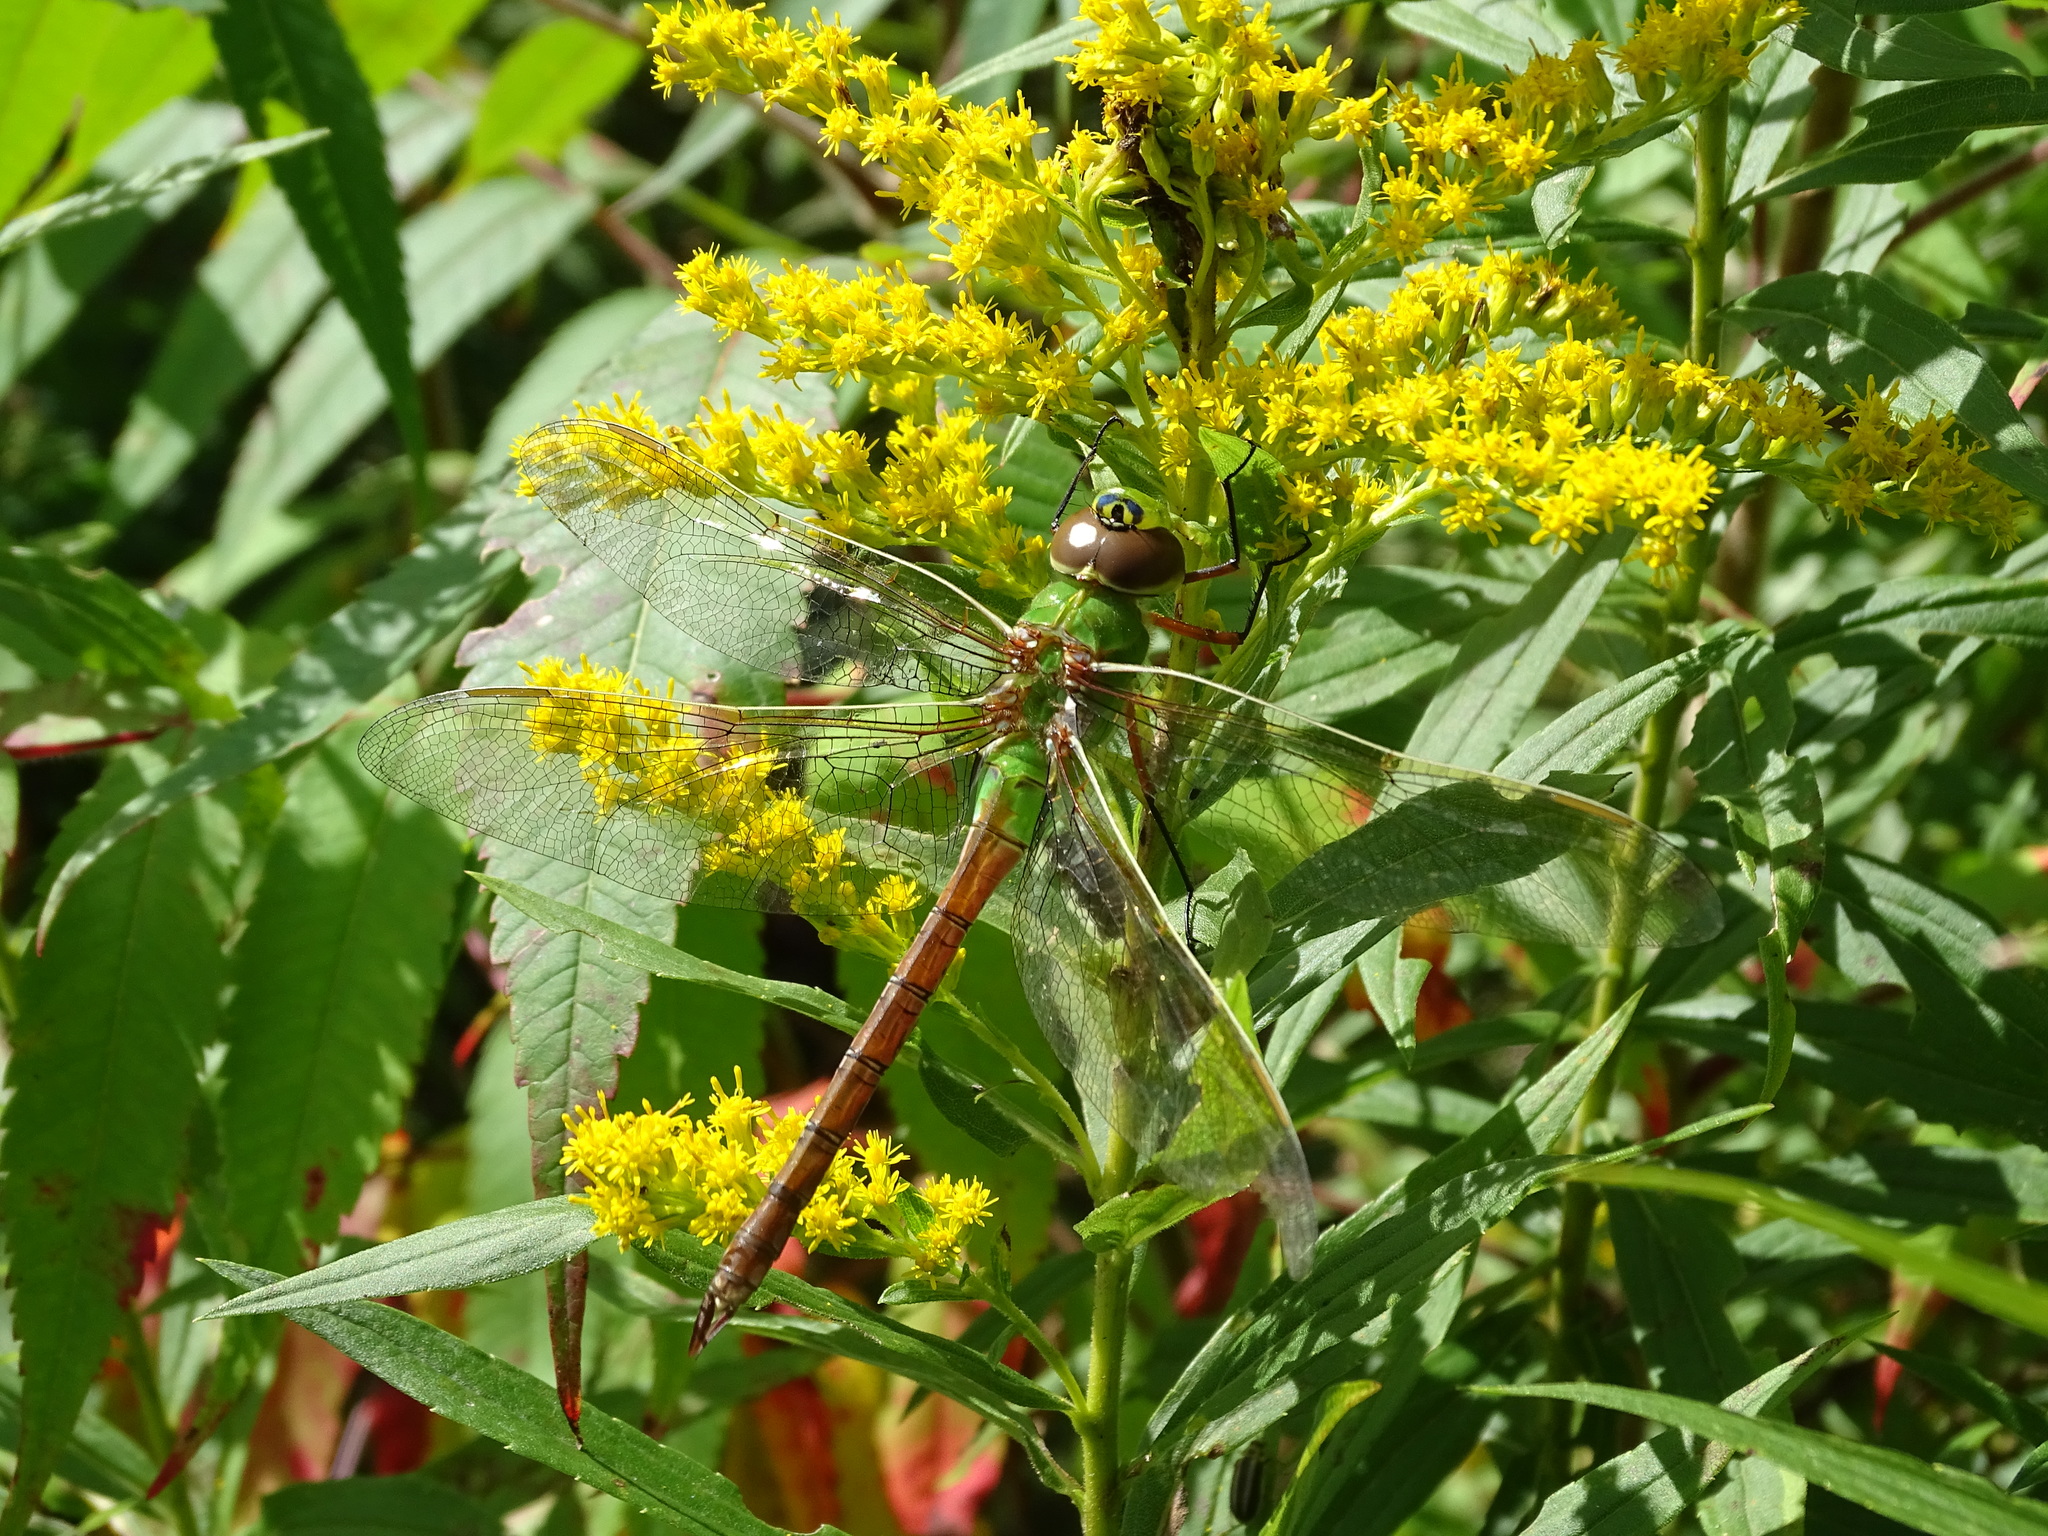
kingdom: Animalia
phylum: Arthropoda
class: Insecta
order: Odonata
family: Aeshnidae
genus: Anax
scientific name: Anax junius
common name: Common green darner
